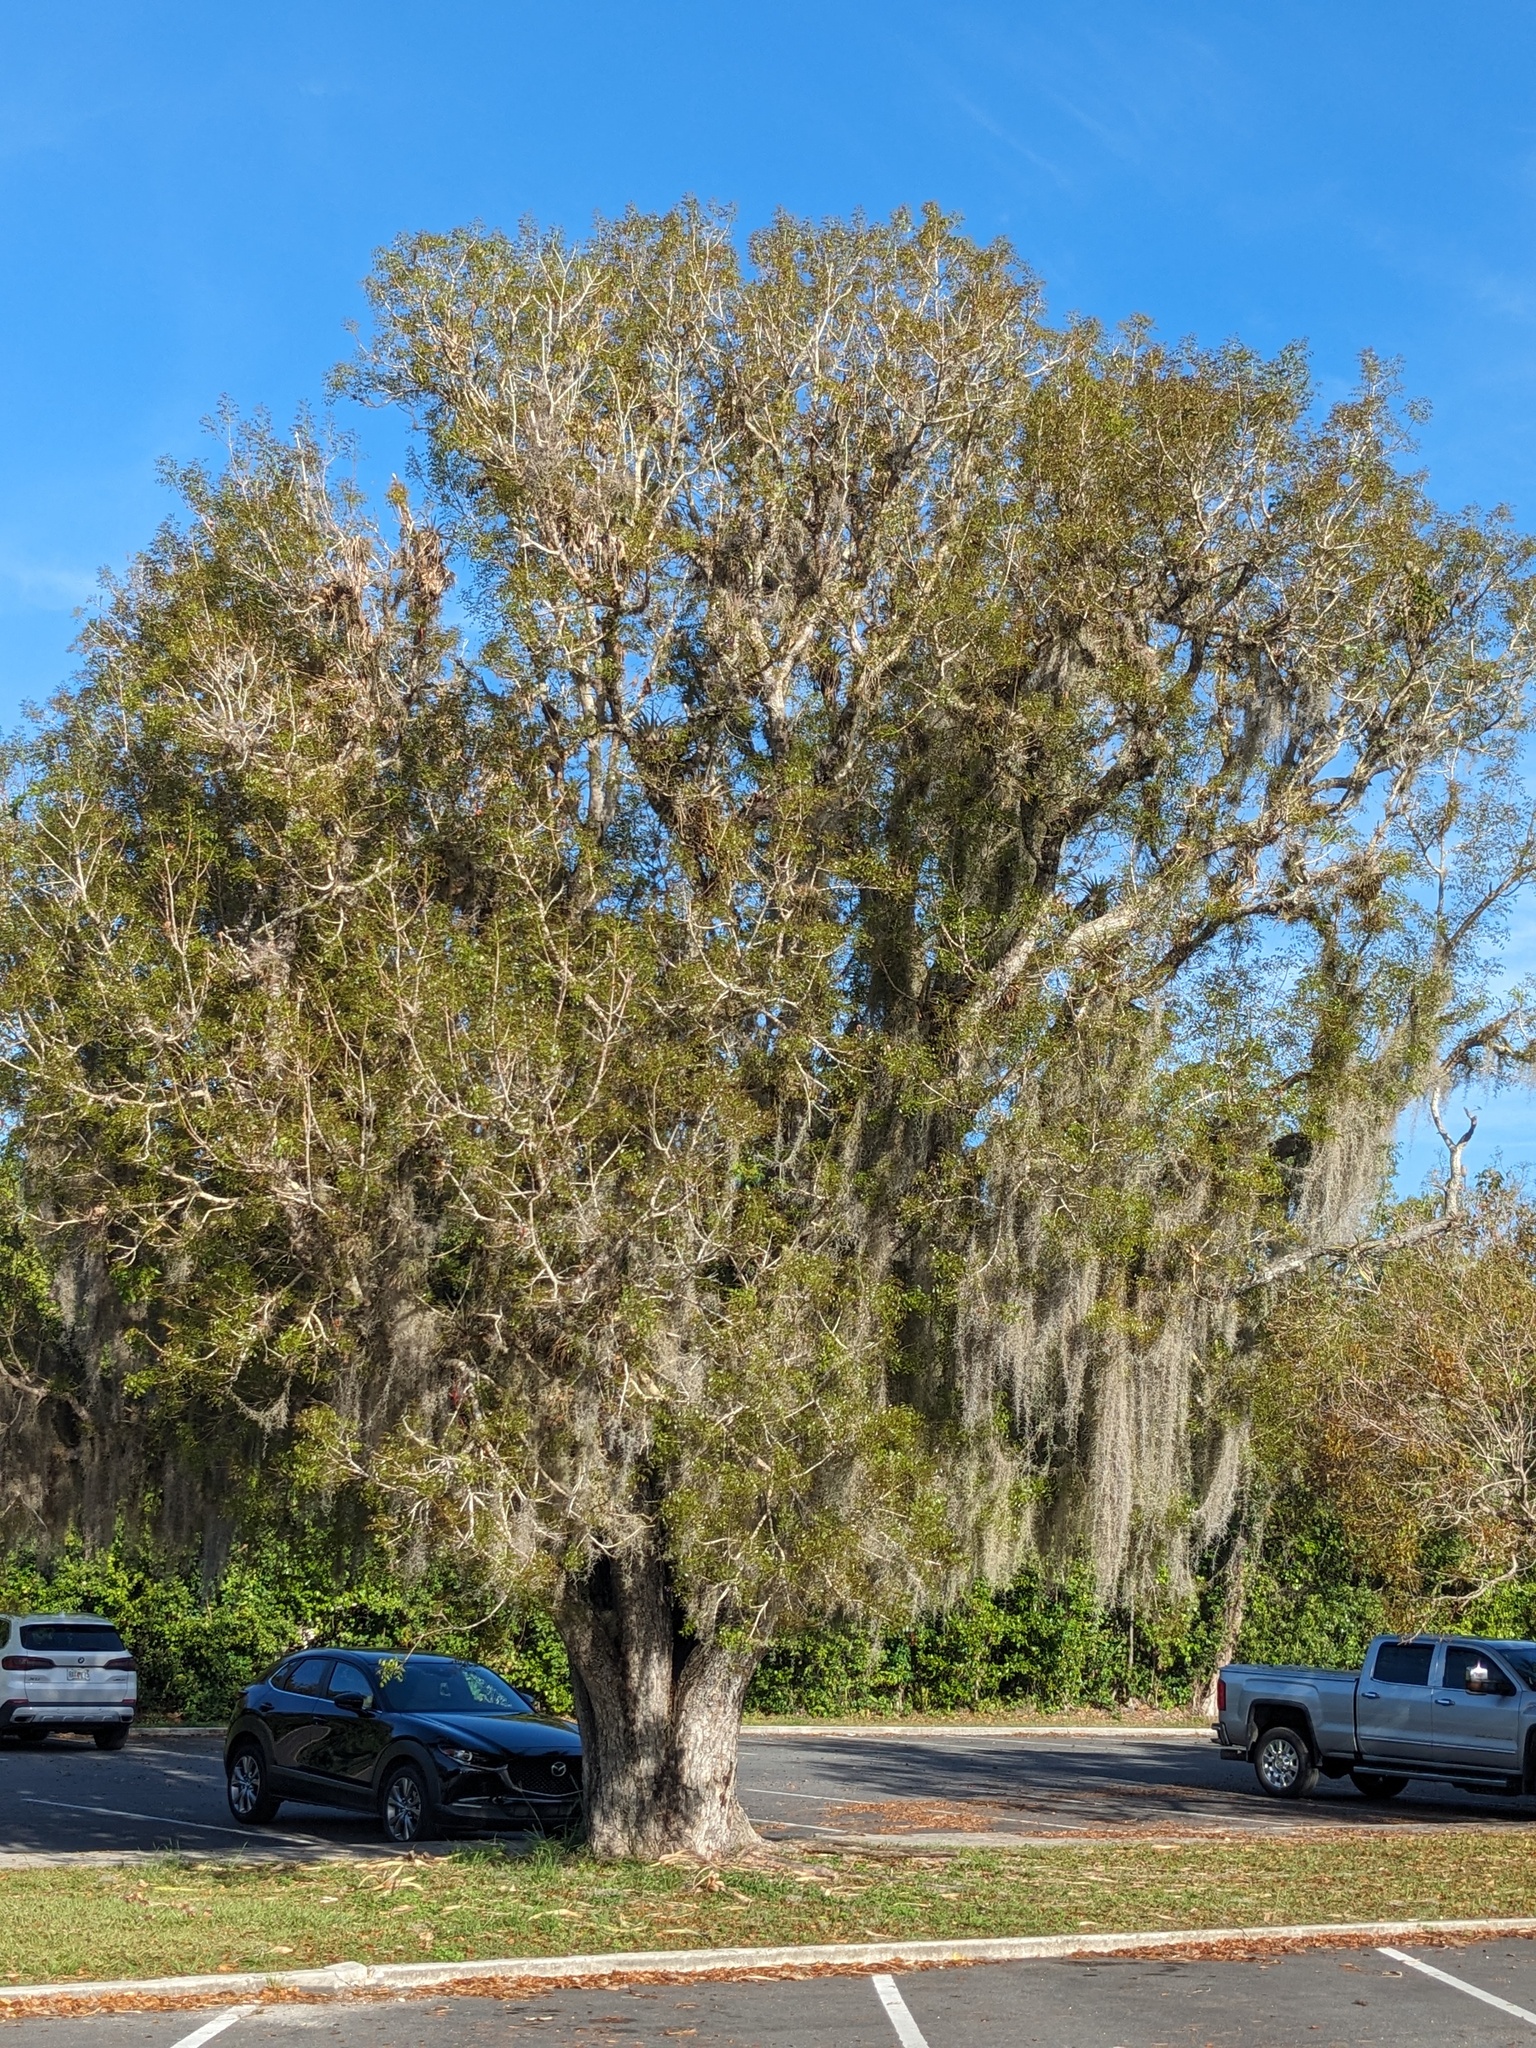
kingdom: Plantae
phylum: Tracheophyta
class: Liliopsida
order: Poales
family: Bromeliaceae
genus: Tillandsia
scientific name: Tillandsia usneoides
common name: Spanish moss
